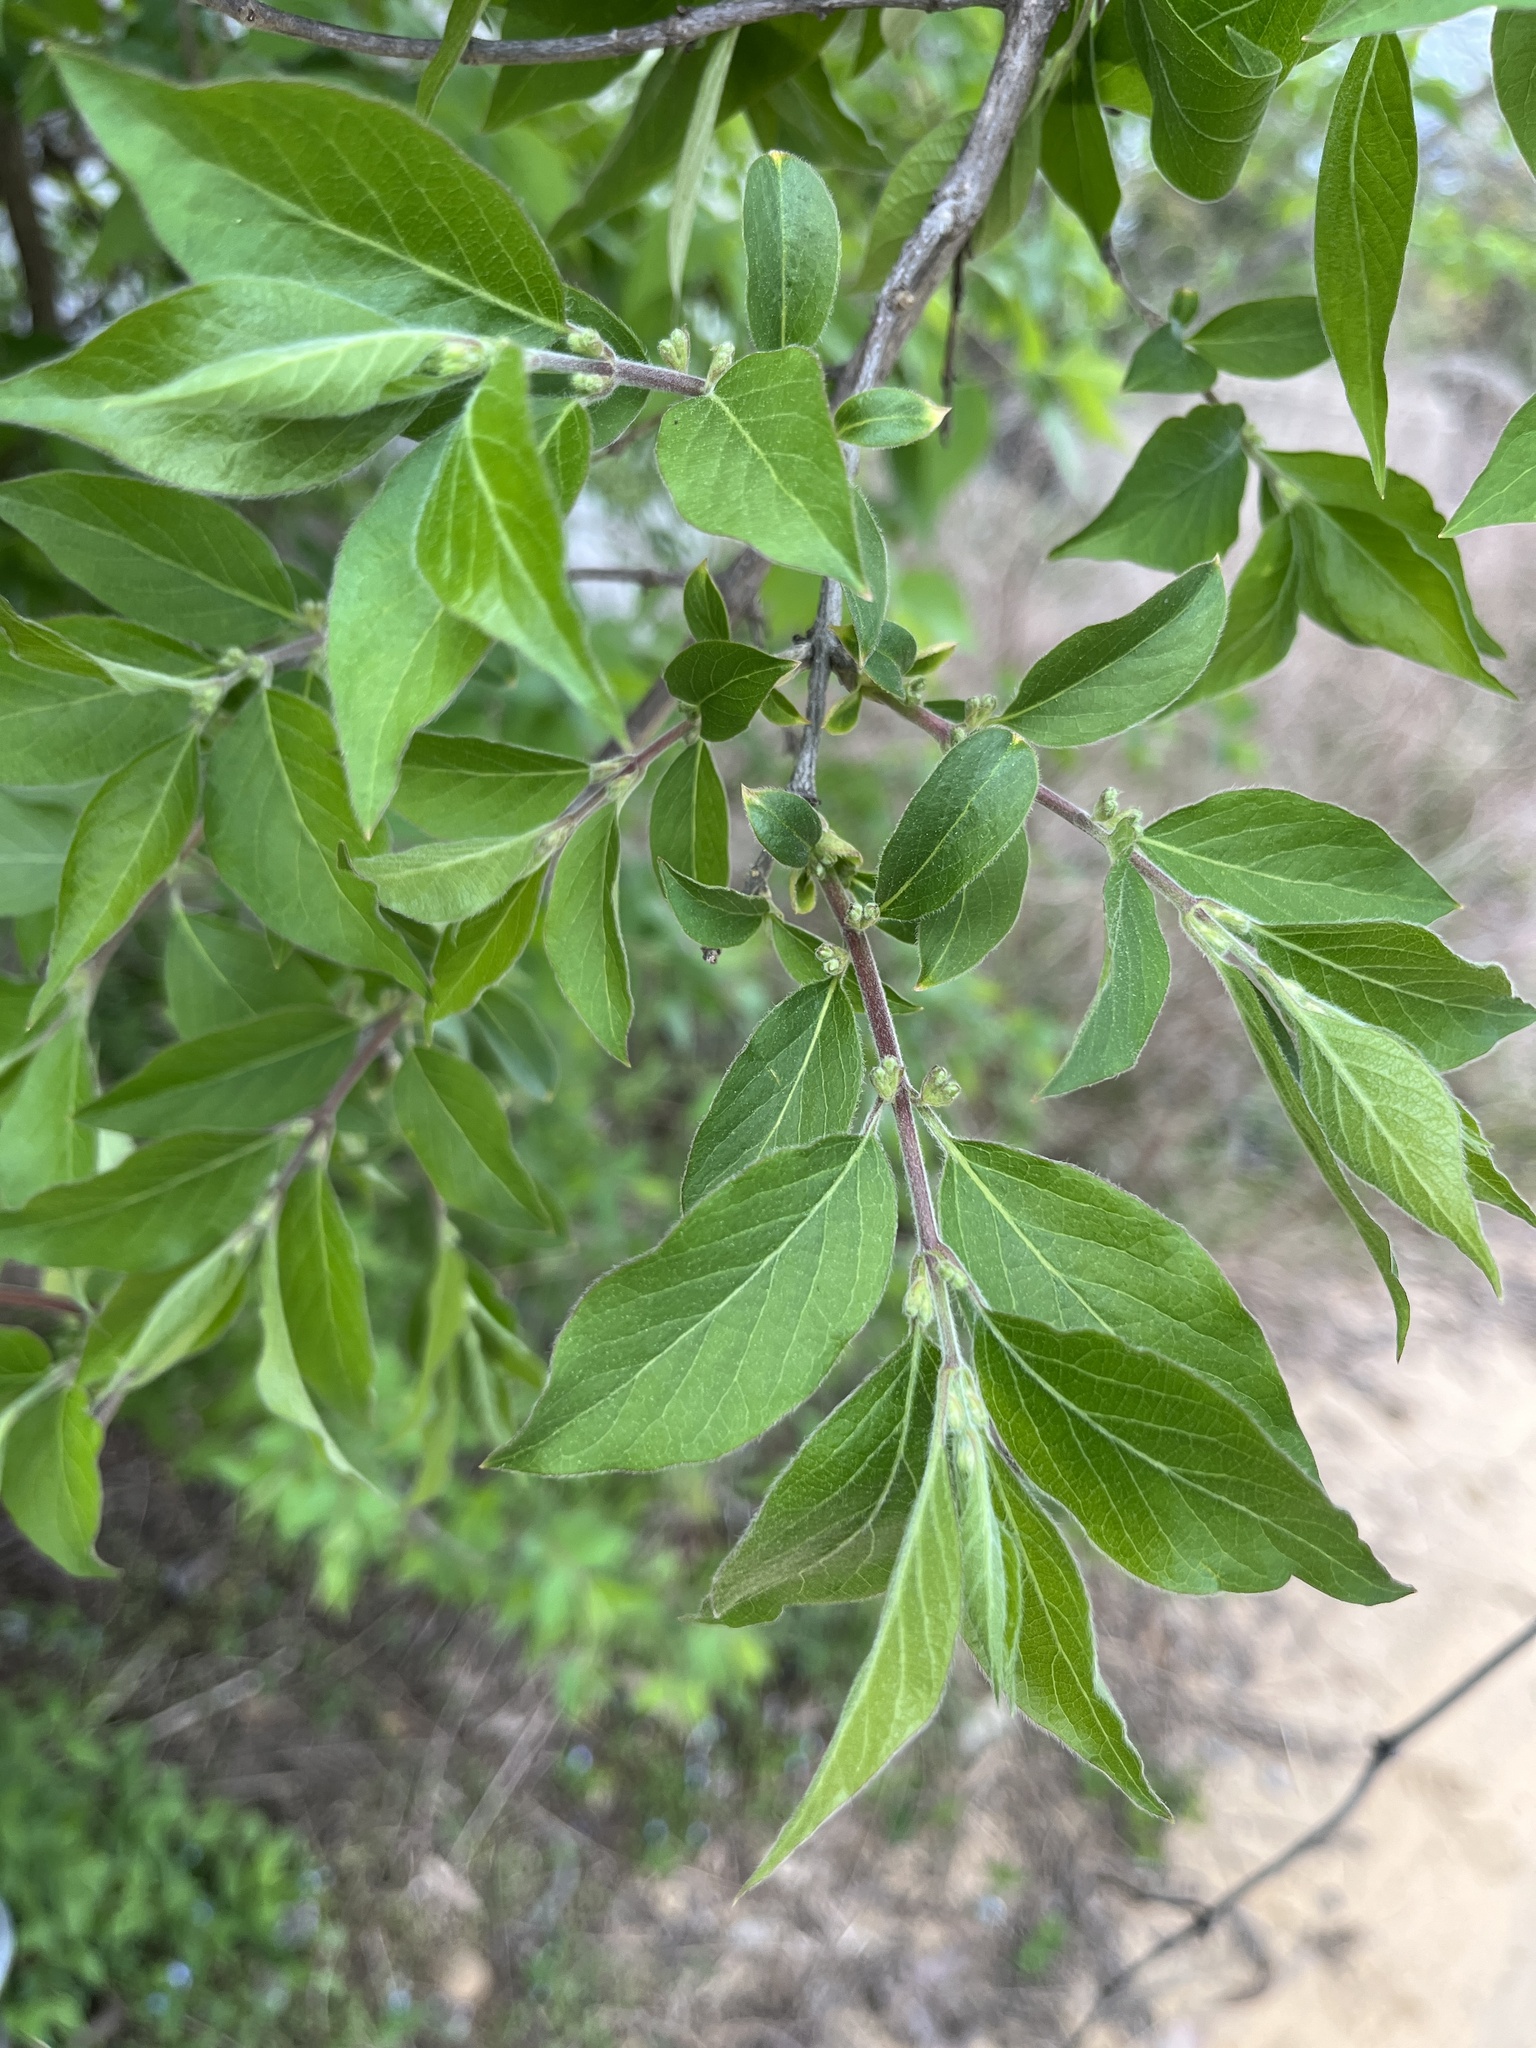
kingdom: Plantae
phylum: Tracheophyta
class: Magnoliopsida
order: Dipsacales
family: Caprifoliaceae
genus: Lonicera
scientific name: Lonicera maackii
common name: Amur honeysuckle
